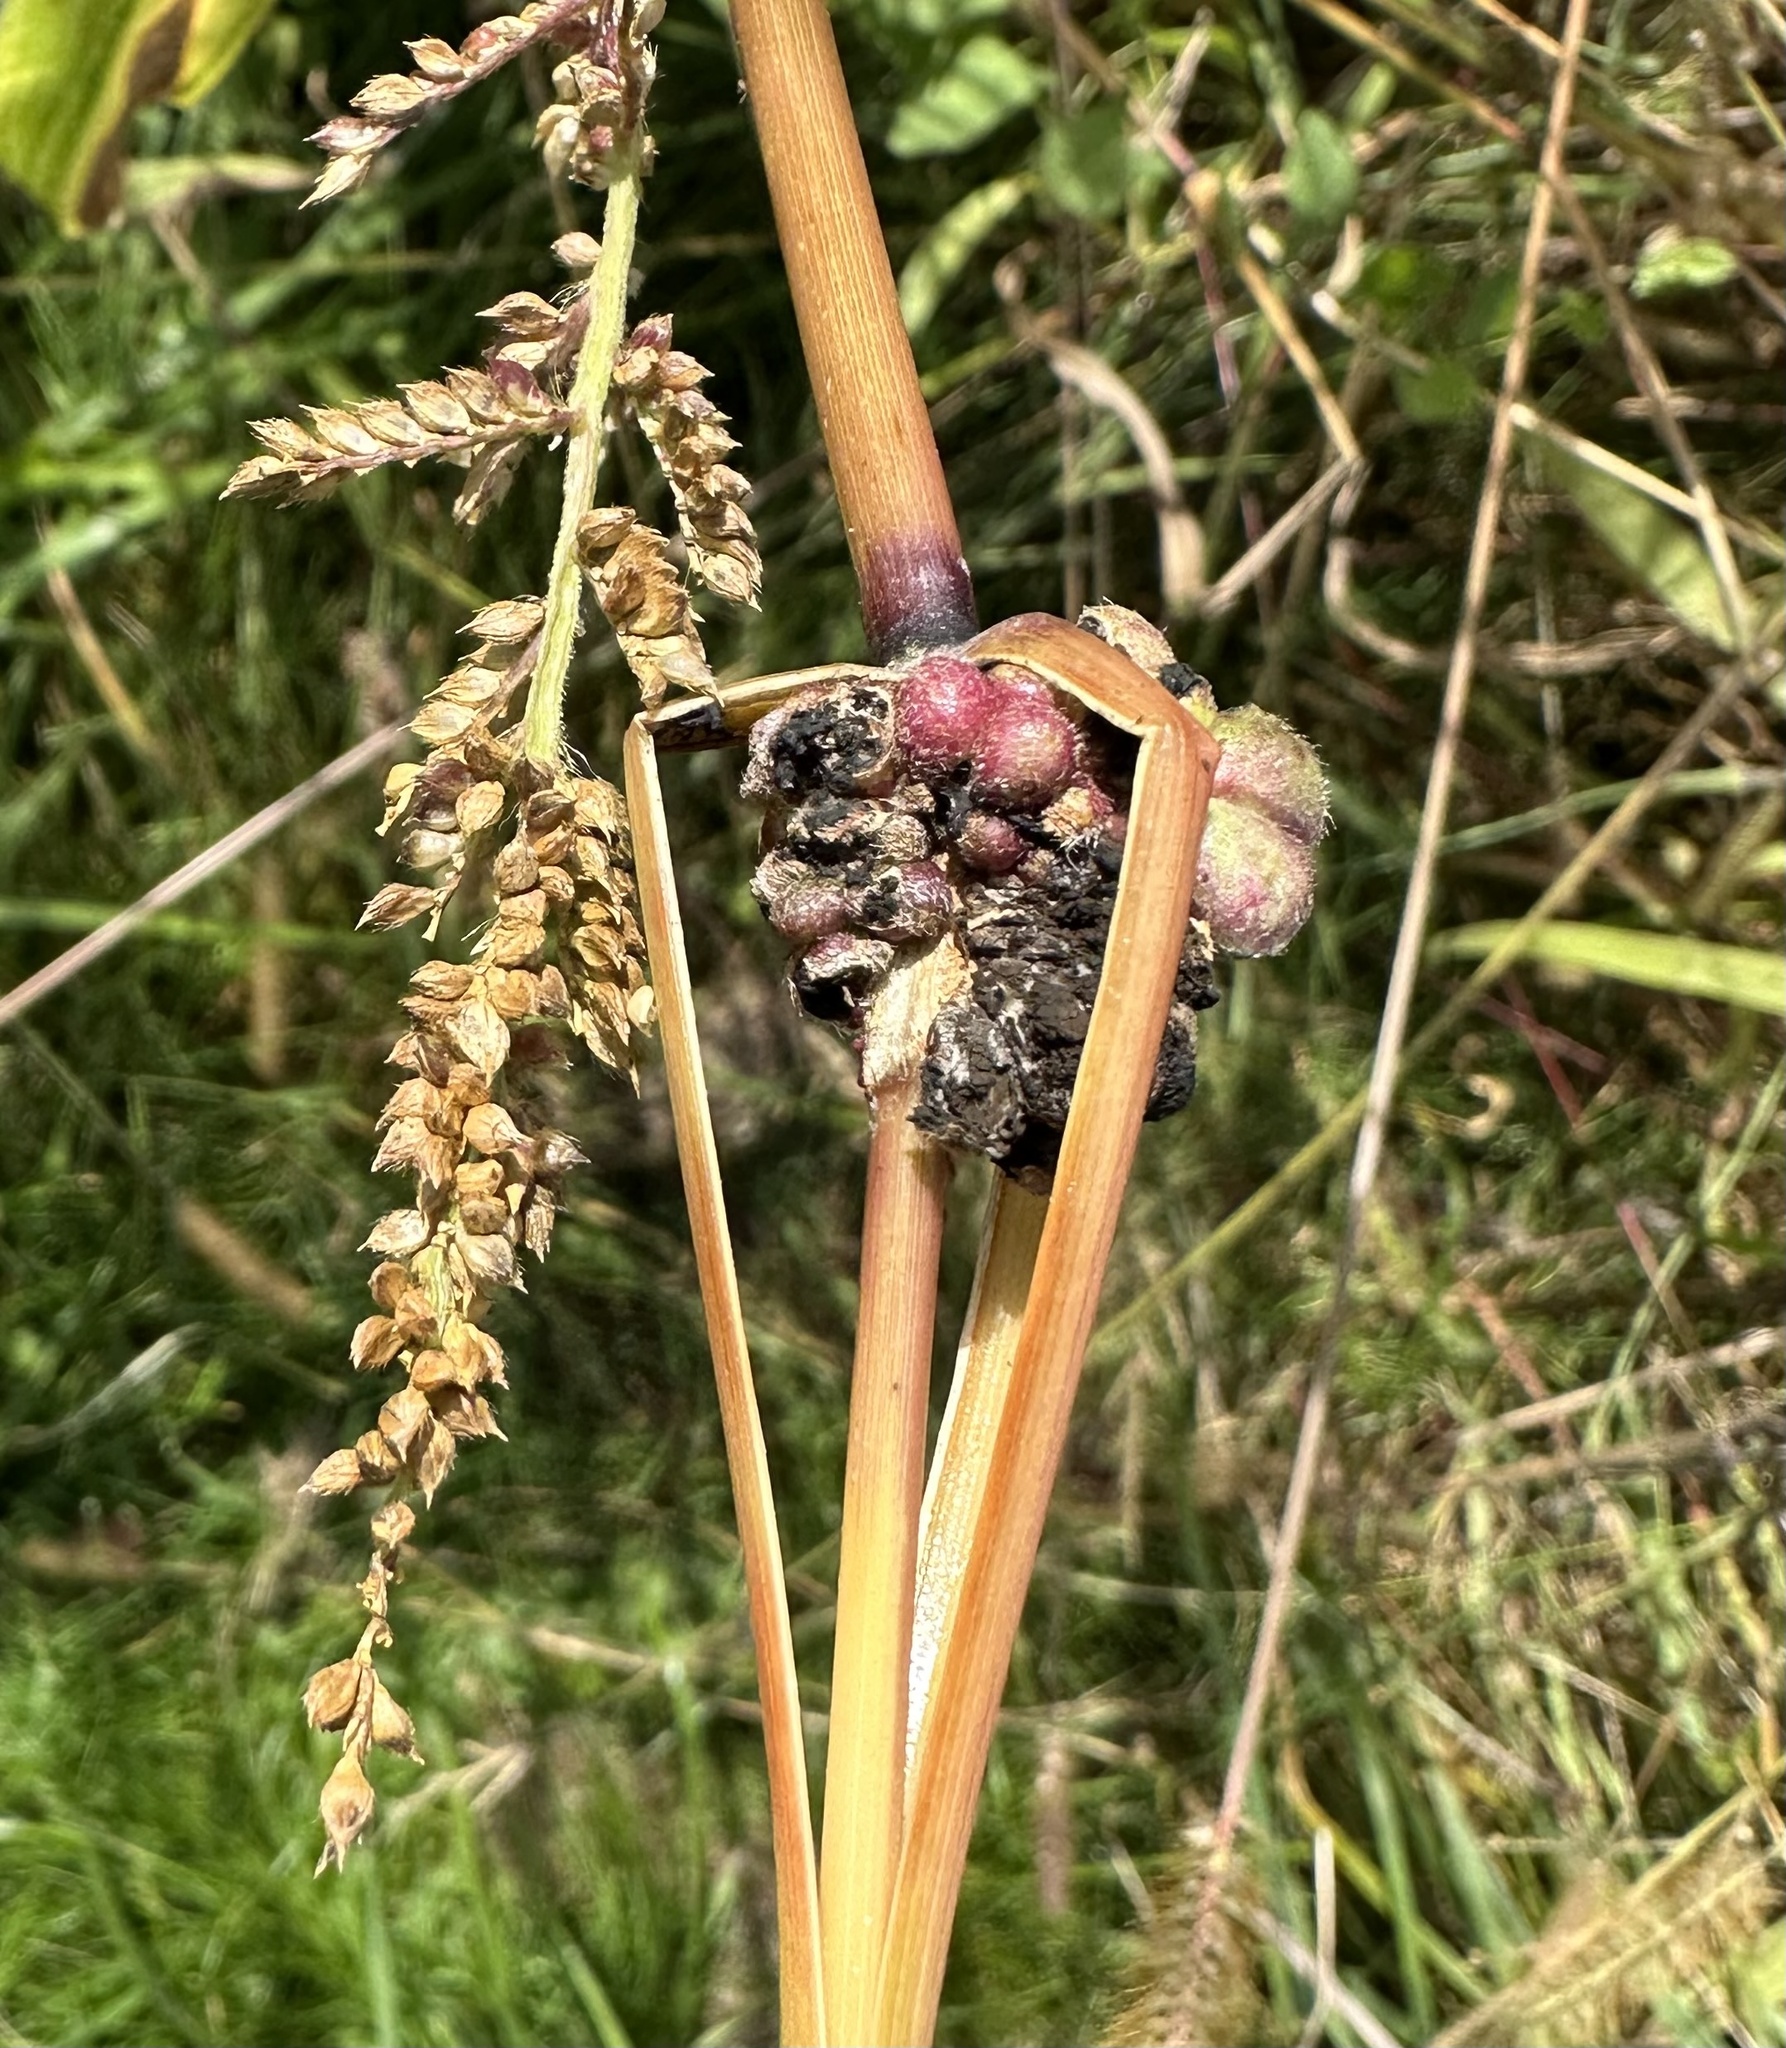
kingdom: Fungi
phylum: Basidiomycota
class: Ustilaginomycetes
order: Ustilaginales
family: Ustilaginaceae
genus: Ustilago
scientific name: Ustilago trichophora
